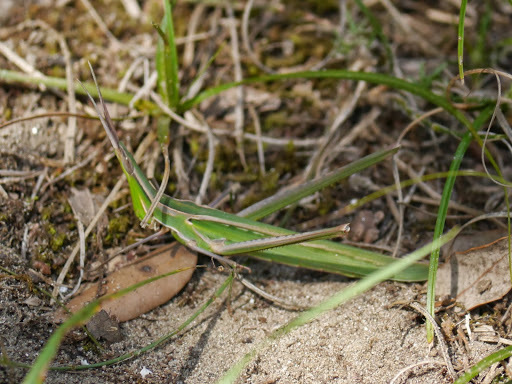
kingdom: Animalia
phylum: Arthropoda
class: Insecta
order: Orthoptera
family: Acrididae
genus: Acrida
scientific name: Acrida ungarica
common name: Common cone-headed grasshopper
